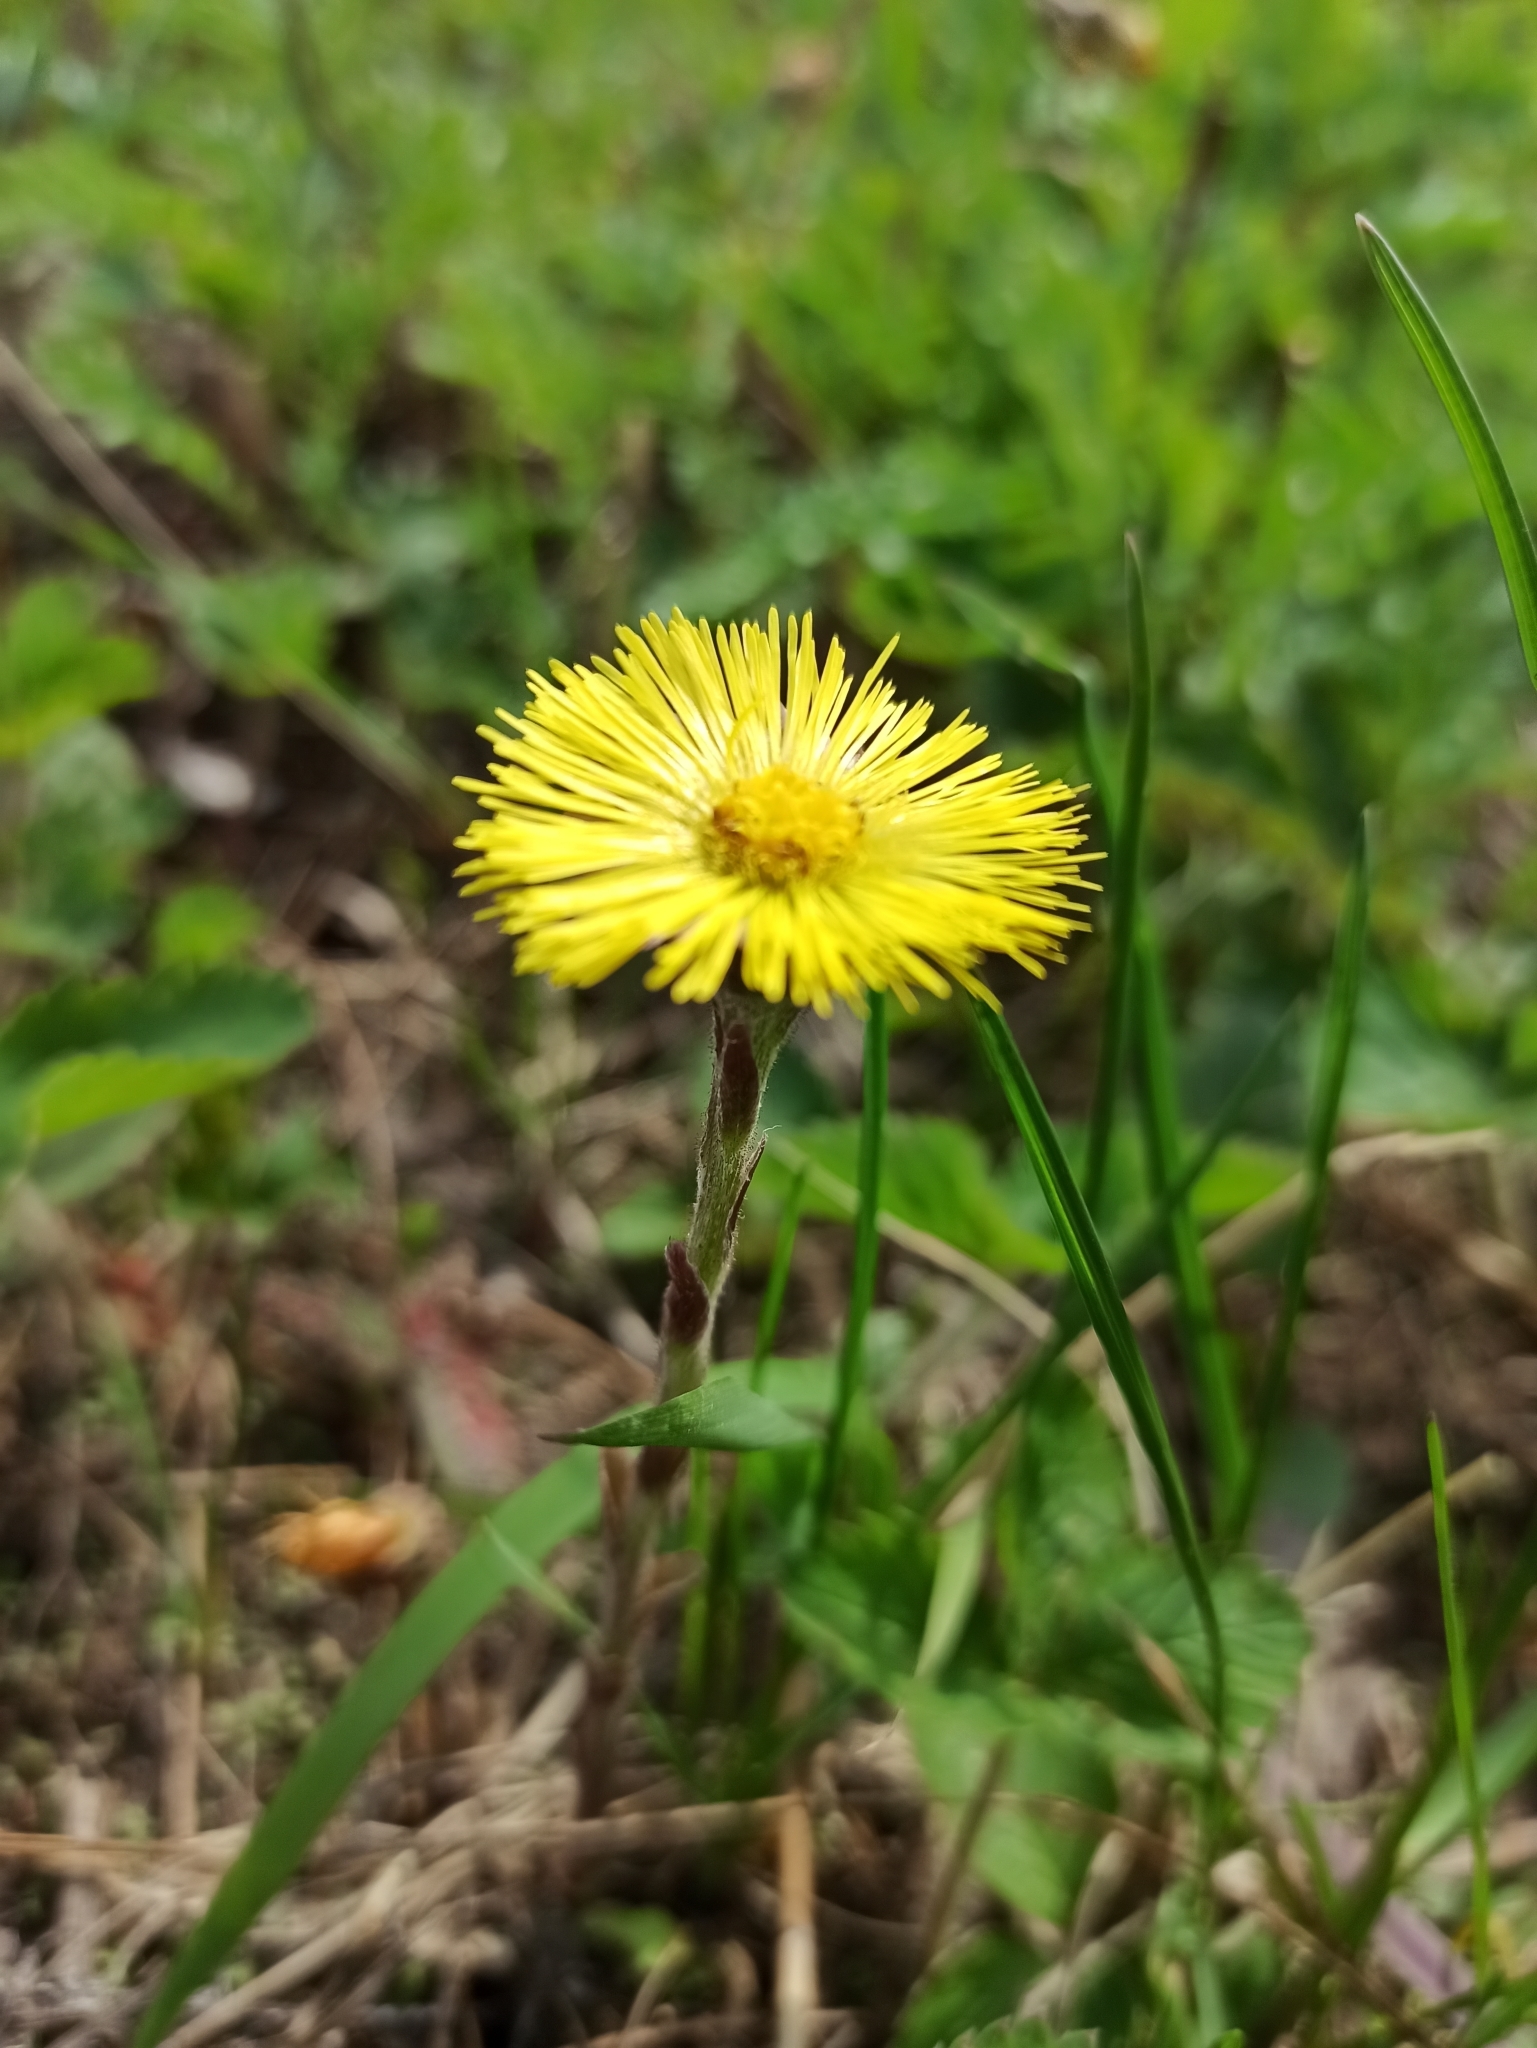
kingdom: Plantae
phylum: Tracheophyta
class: Magnoliopsida
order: Asterales
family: Asteraceae
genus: Tussilago
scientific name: Tussilago farfara
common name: Coltsfoot
